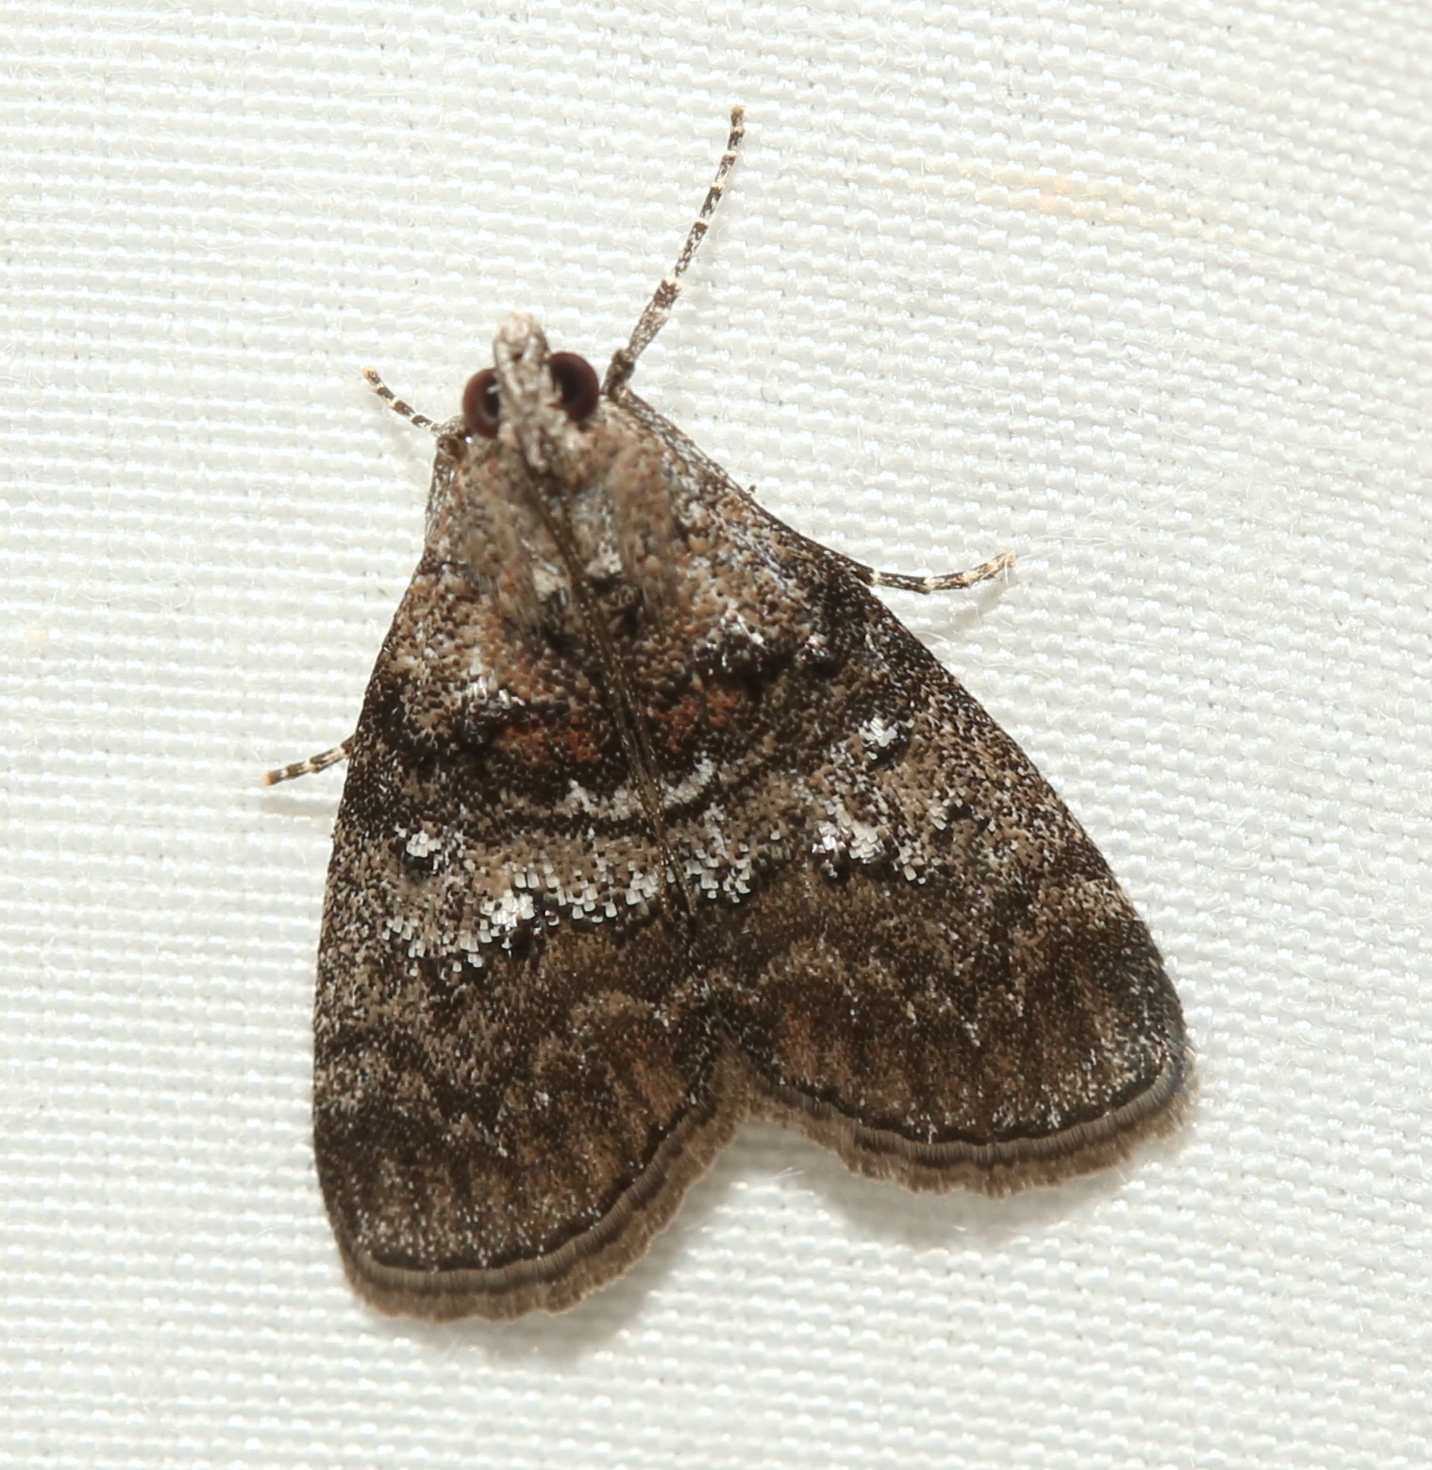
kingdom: Animalia
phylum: Arthropoda
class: Insecta
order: Lepidoptera
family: Pyralidae
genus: Pococera
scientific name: Pococera asperatella
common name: Maple webworm moth
